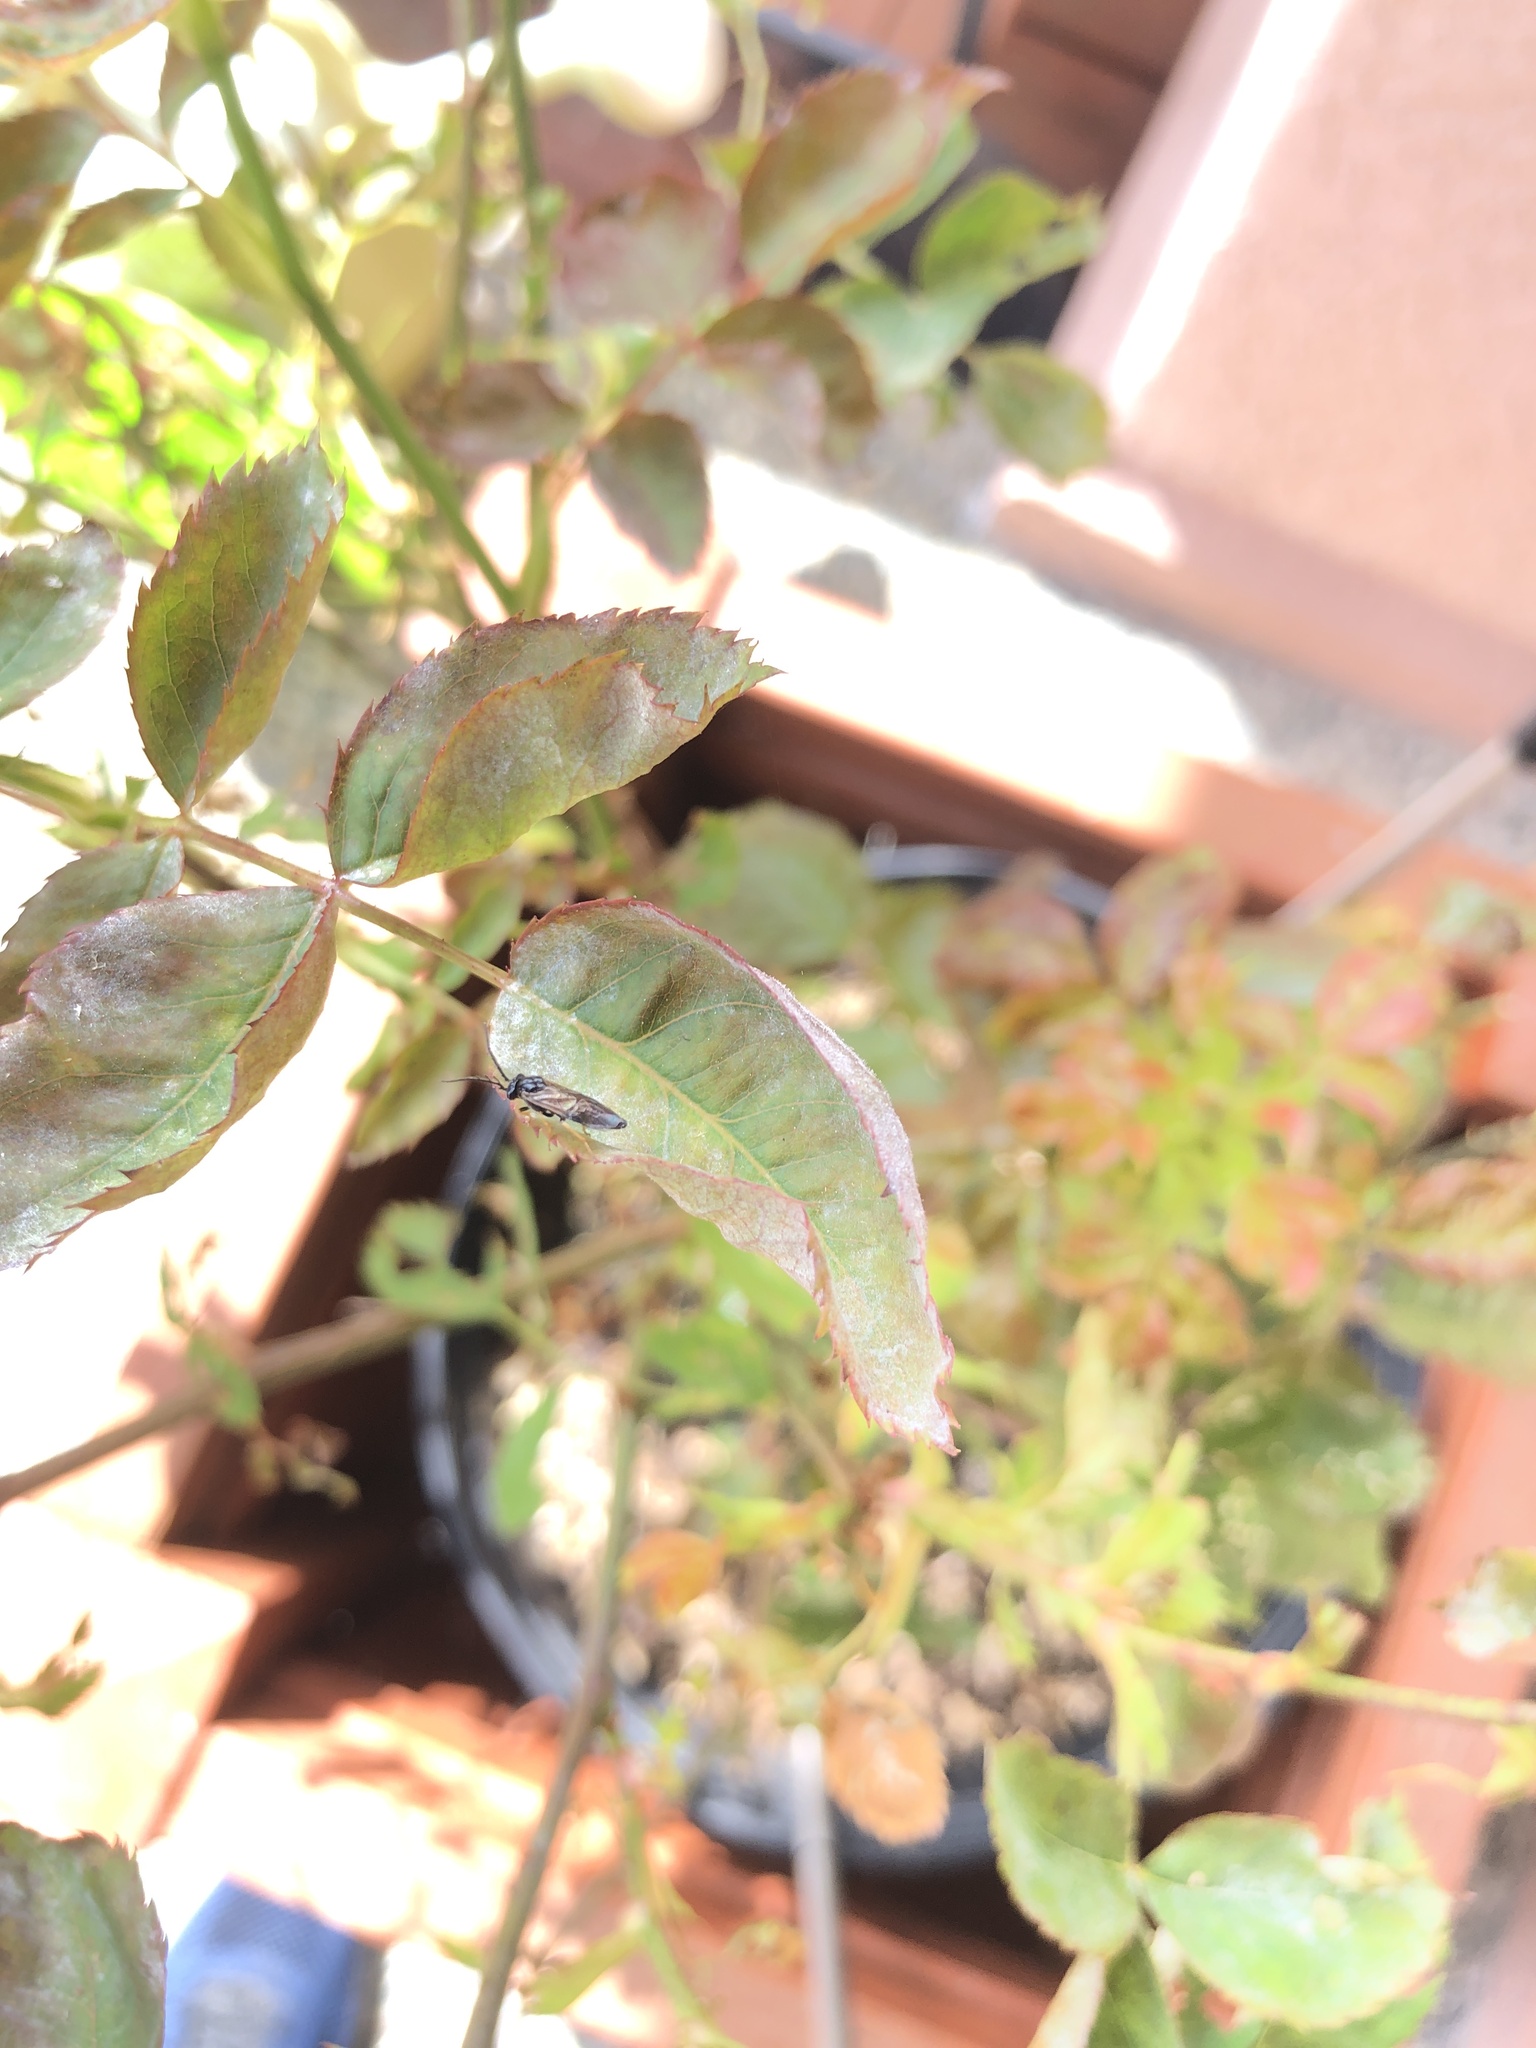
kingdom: Animalia
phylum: Arthropoda
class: Insecta
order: Hymenoptera
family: Tenthredinidae
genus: Cladius
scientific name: Cladius pectinicornis
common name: Sawfly
